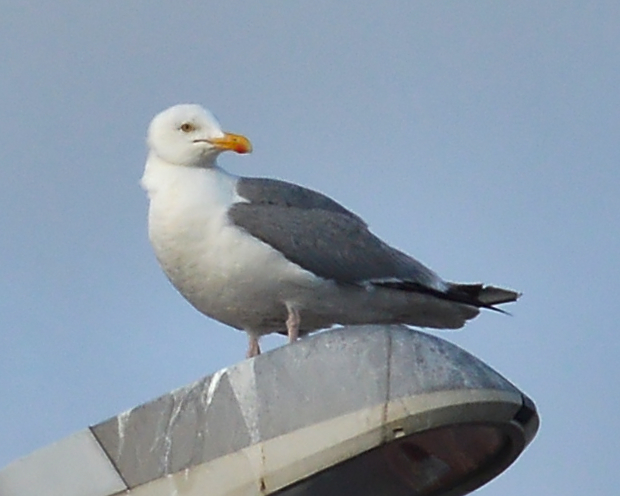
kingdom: Animalia
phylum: Chordata
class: Aves
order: Charadriiformes
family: Laridae
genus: Larus
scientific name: Larus argentatus
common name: Herring gull
